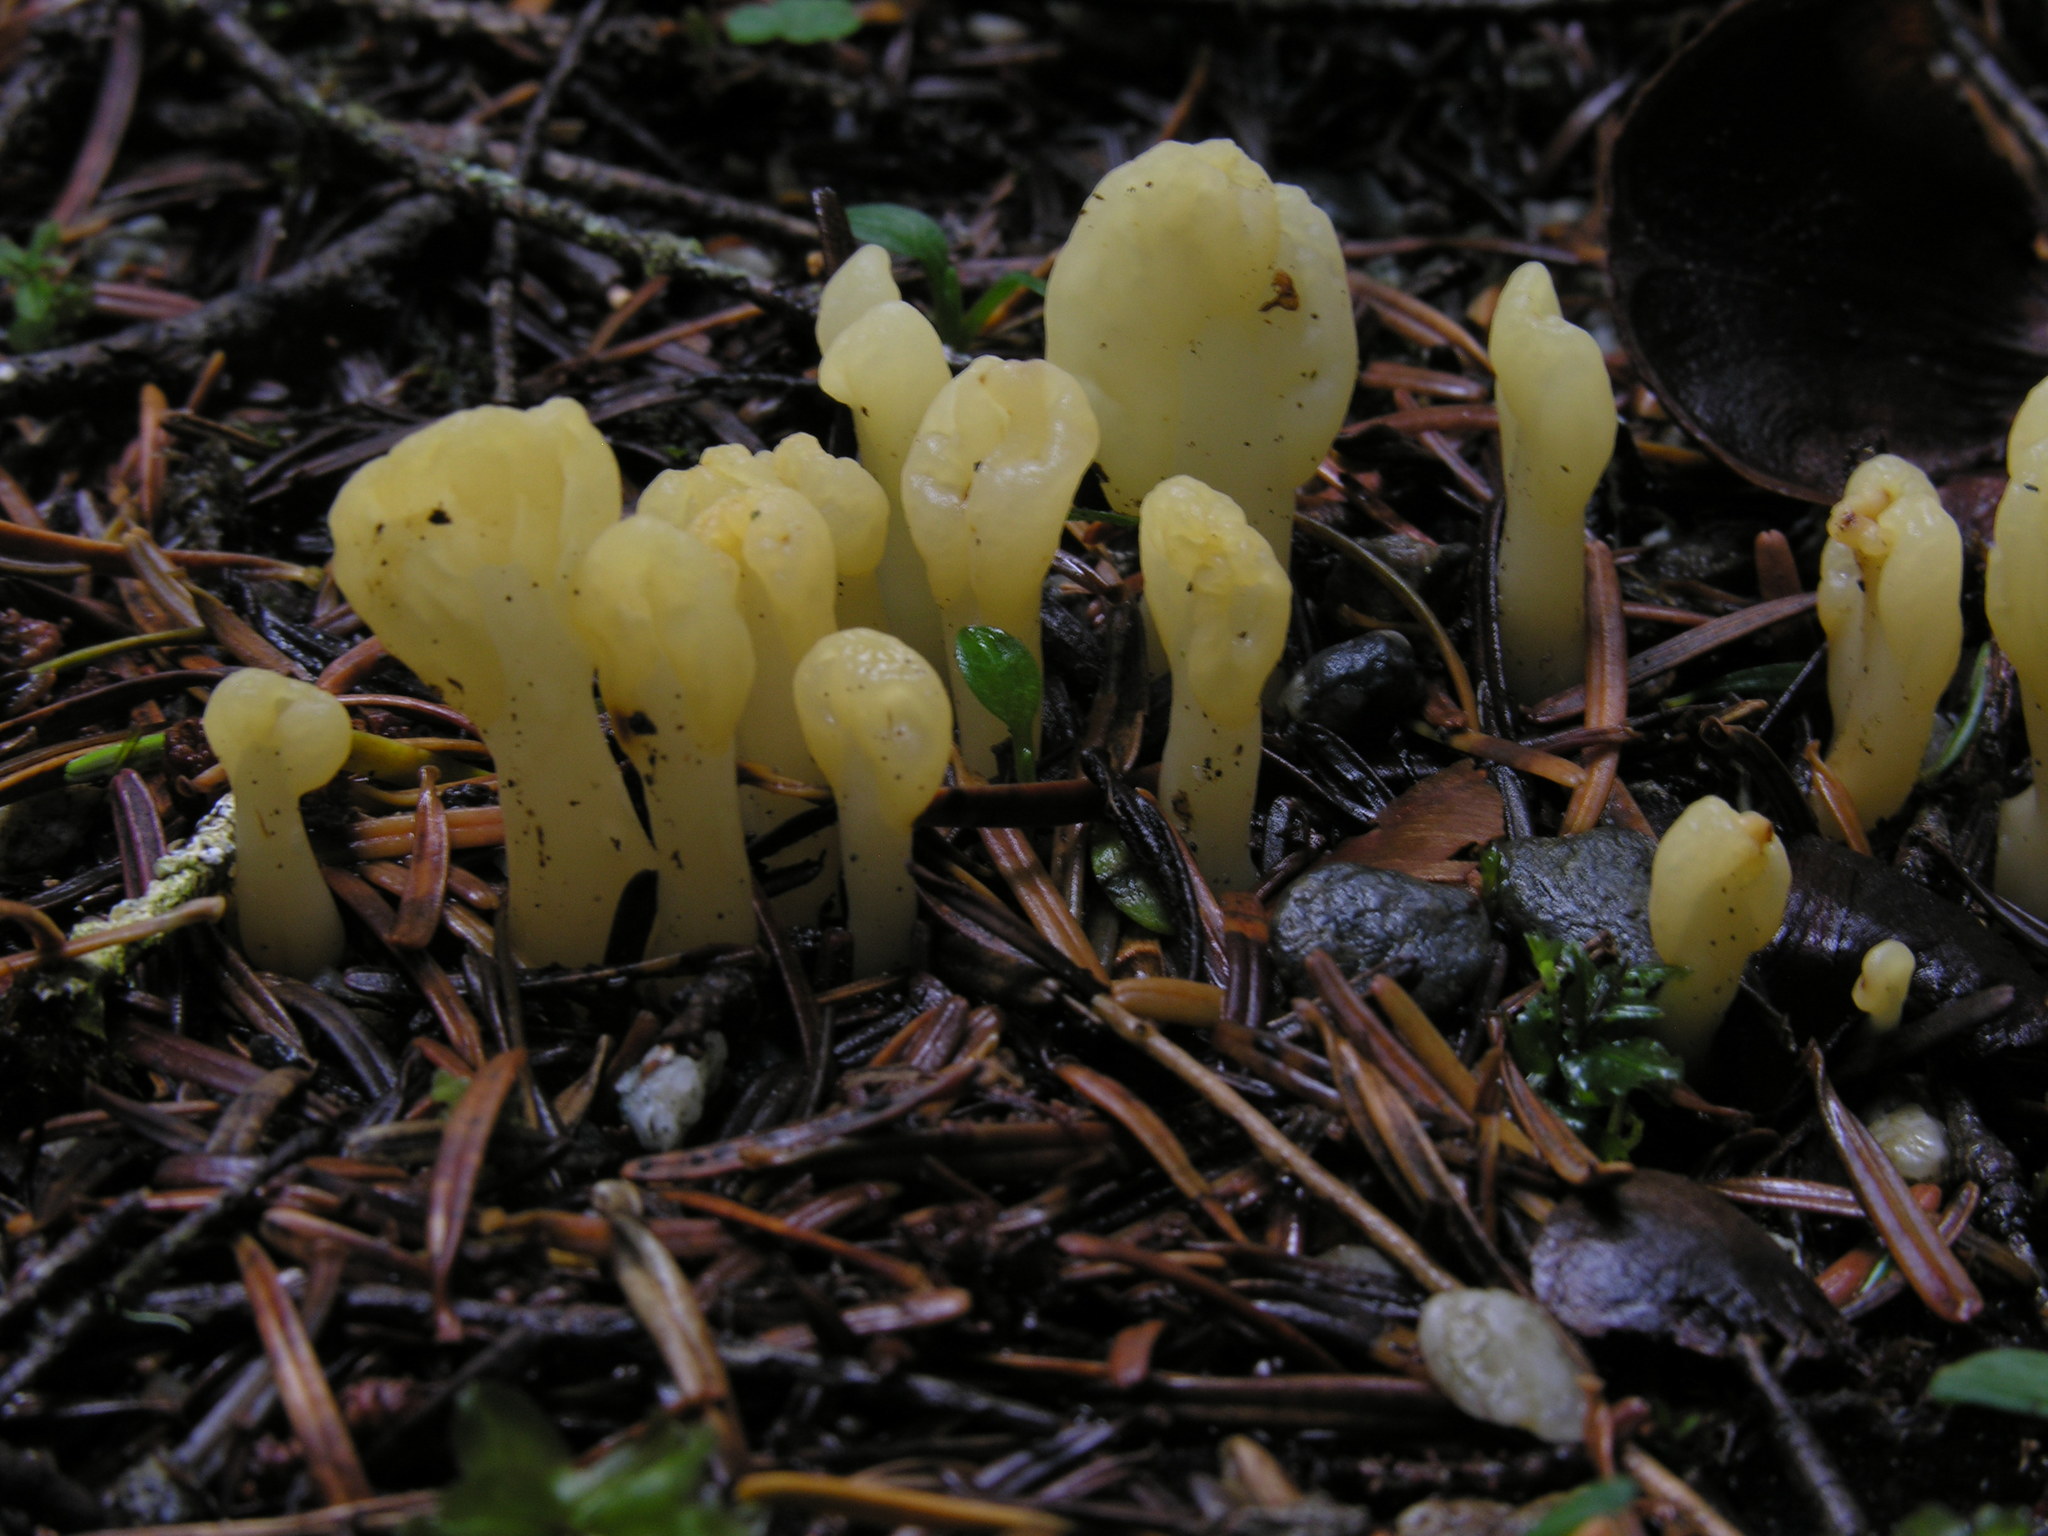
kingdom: Fungi
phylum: Ascomycota
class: Leotiomycetes
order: Rhytismatales
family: Cudoniaceae
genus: Spathularia
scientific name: Spathularia flavida
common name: Yellow fan
